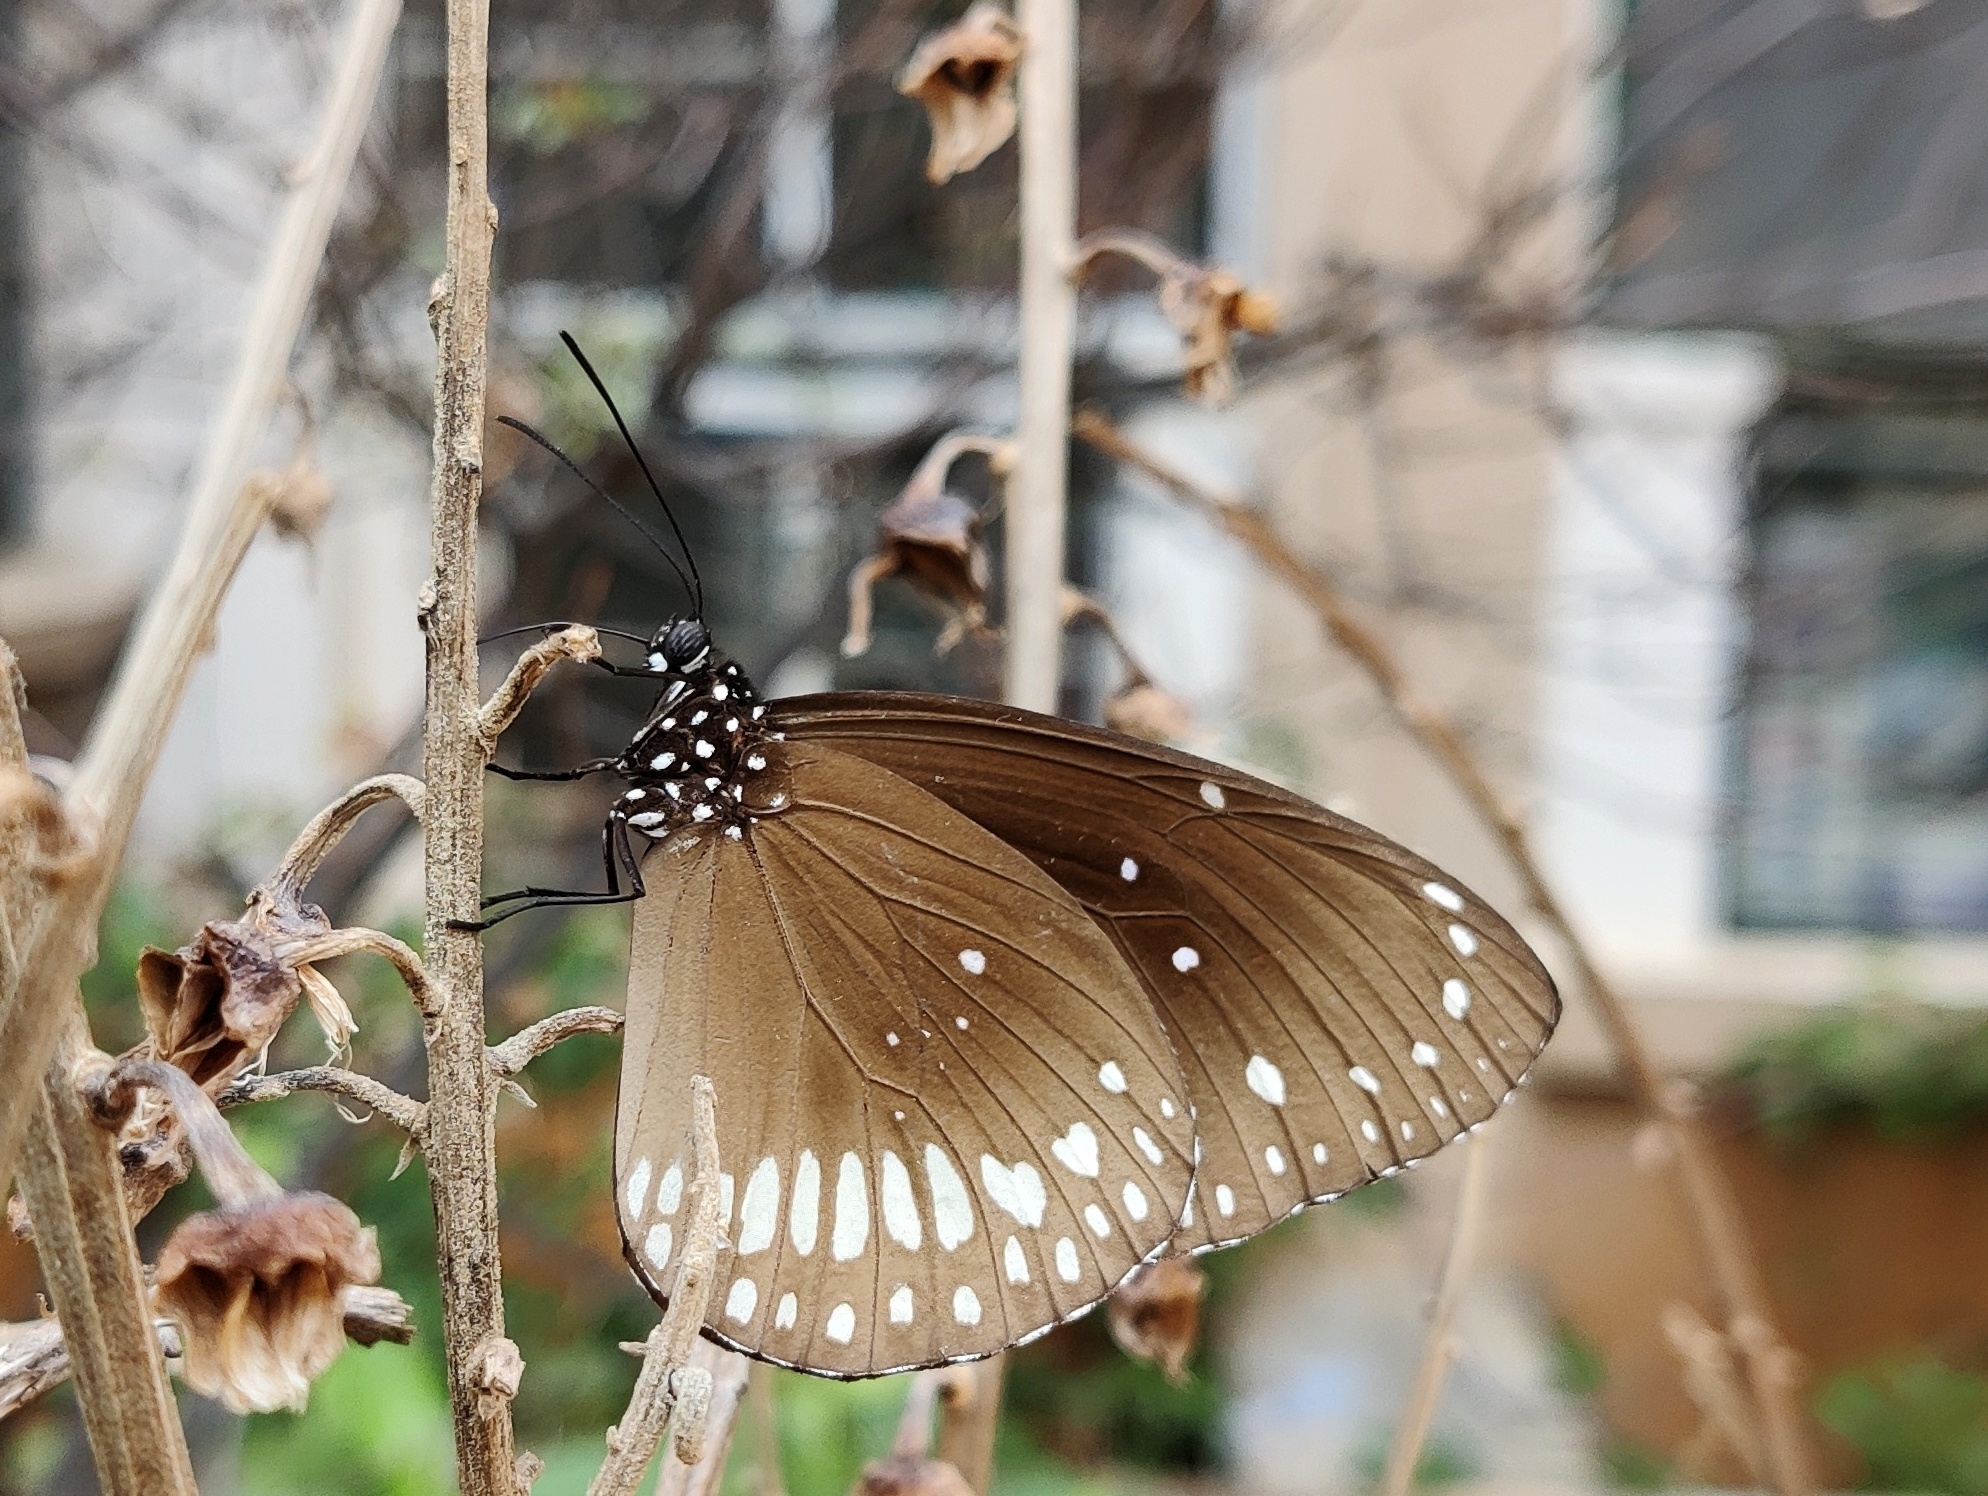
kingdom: Animalia
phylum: Arthropoda
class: Insecta
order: Lepidoptera
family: Nymphalidae
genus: Euploea
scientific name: Euploea core
